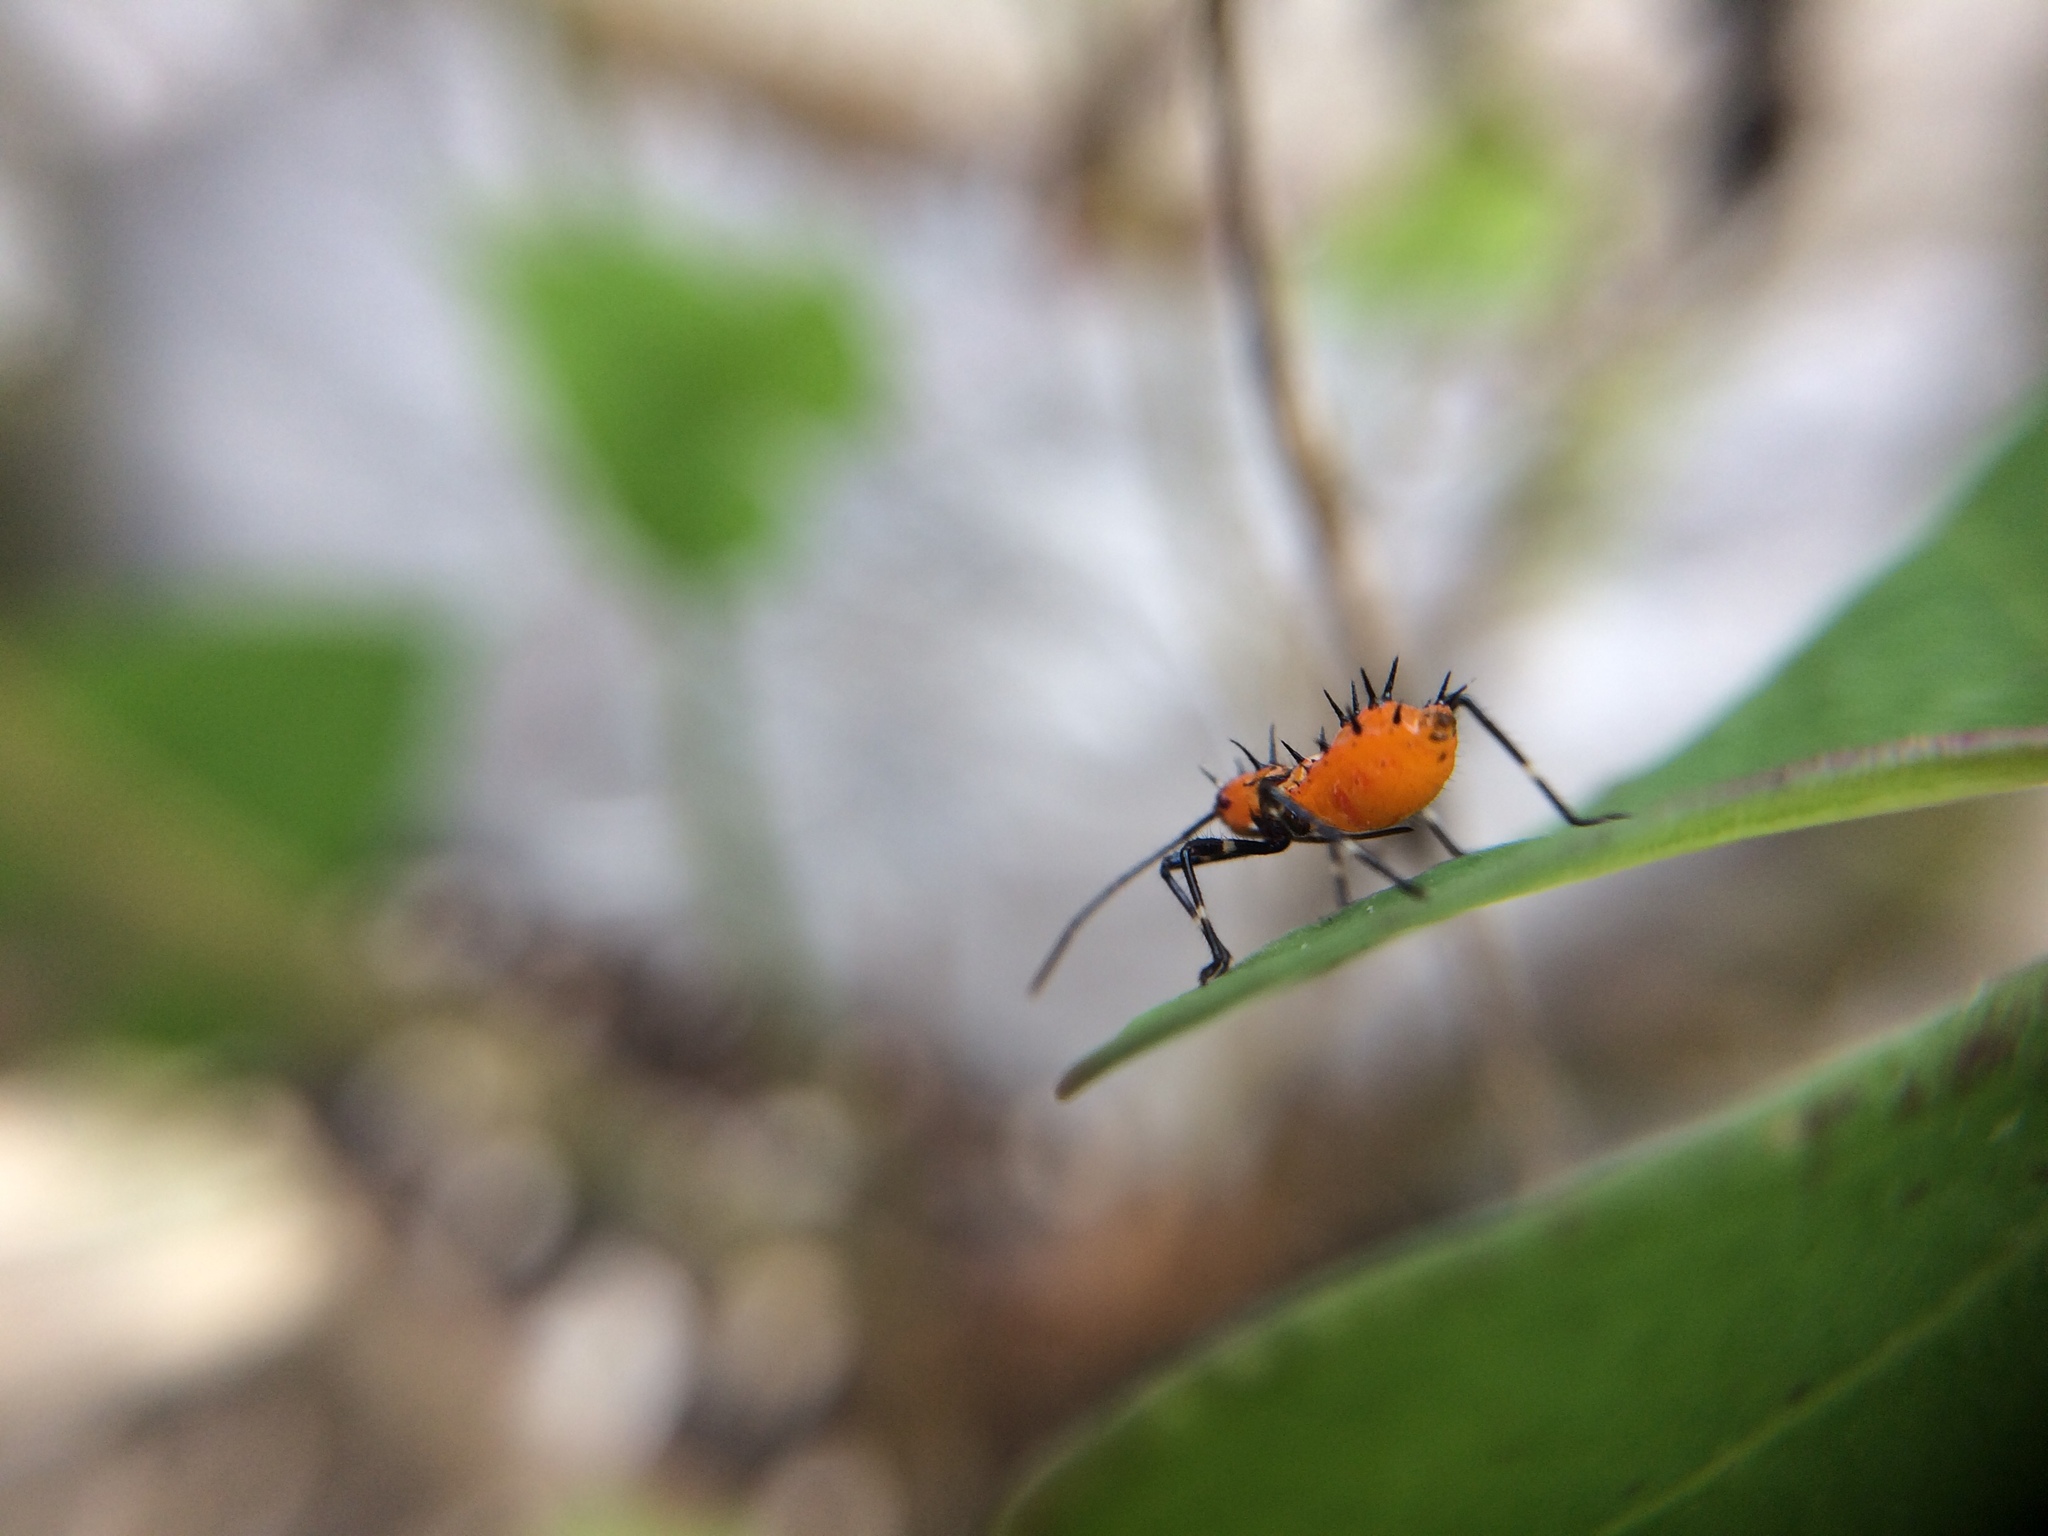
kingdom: Animalia
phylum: Arthropoda
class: Insecta
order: Hemiptera
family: Coreidae
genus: Phthiacnemia
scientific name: Phthiacnemia picta
